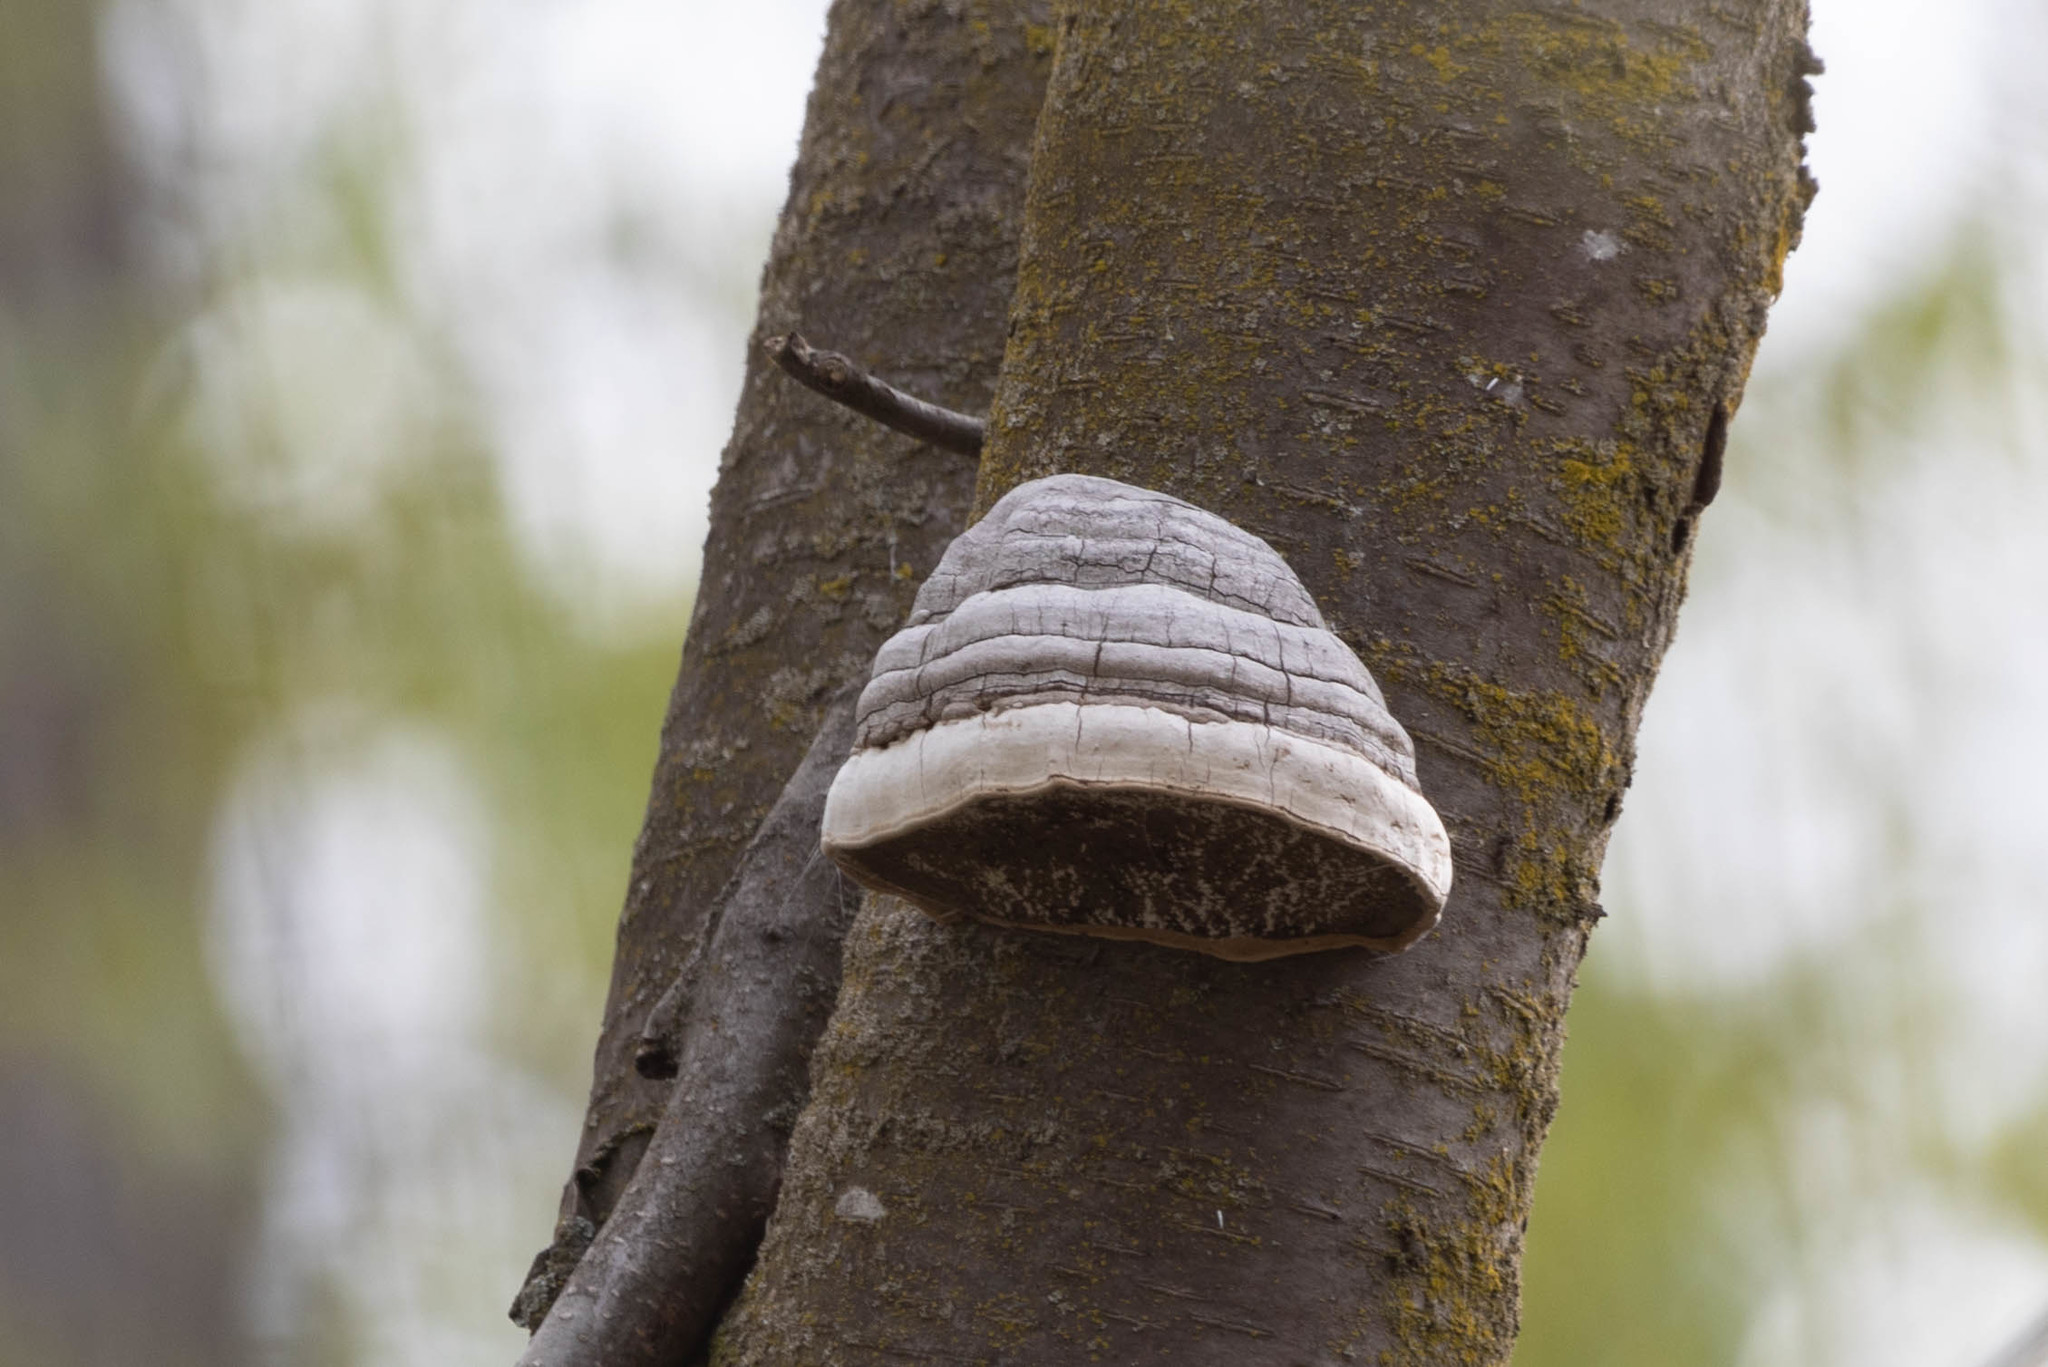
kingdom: Fungi
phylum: Basidiomycota
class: Agaricomycetes
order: Polyporales
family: Polyporaceae
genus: Fomes
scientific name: Fomes fomentarius
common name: Hoof fungus
